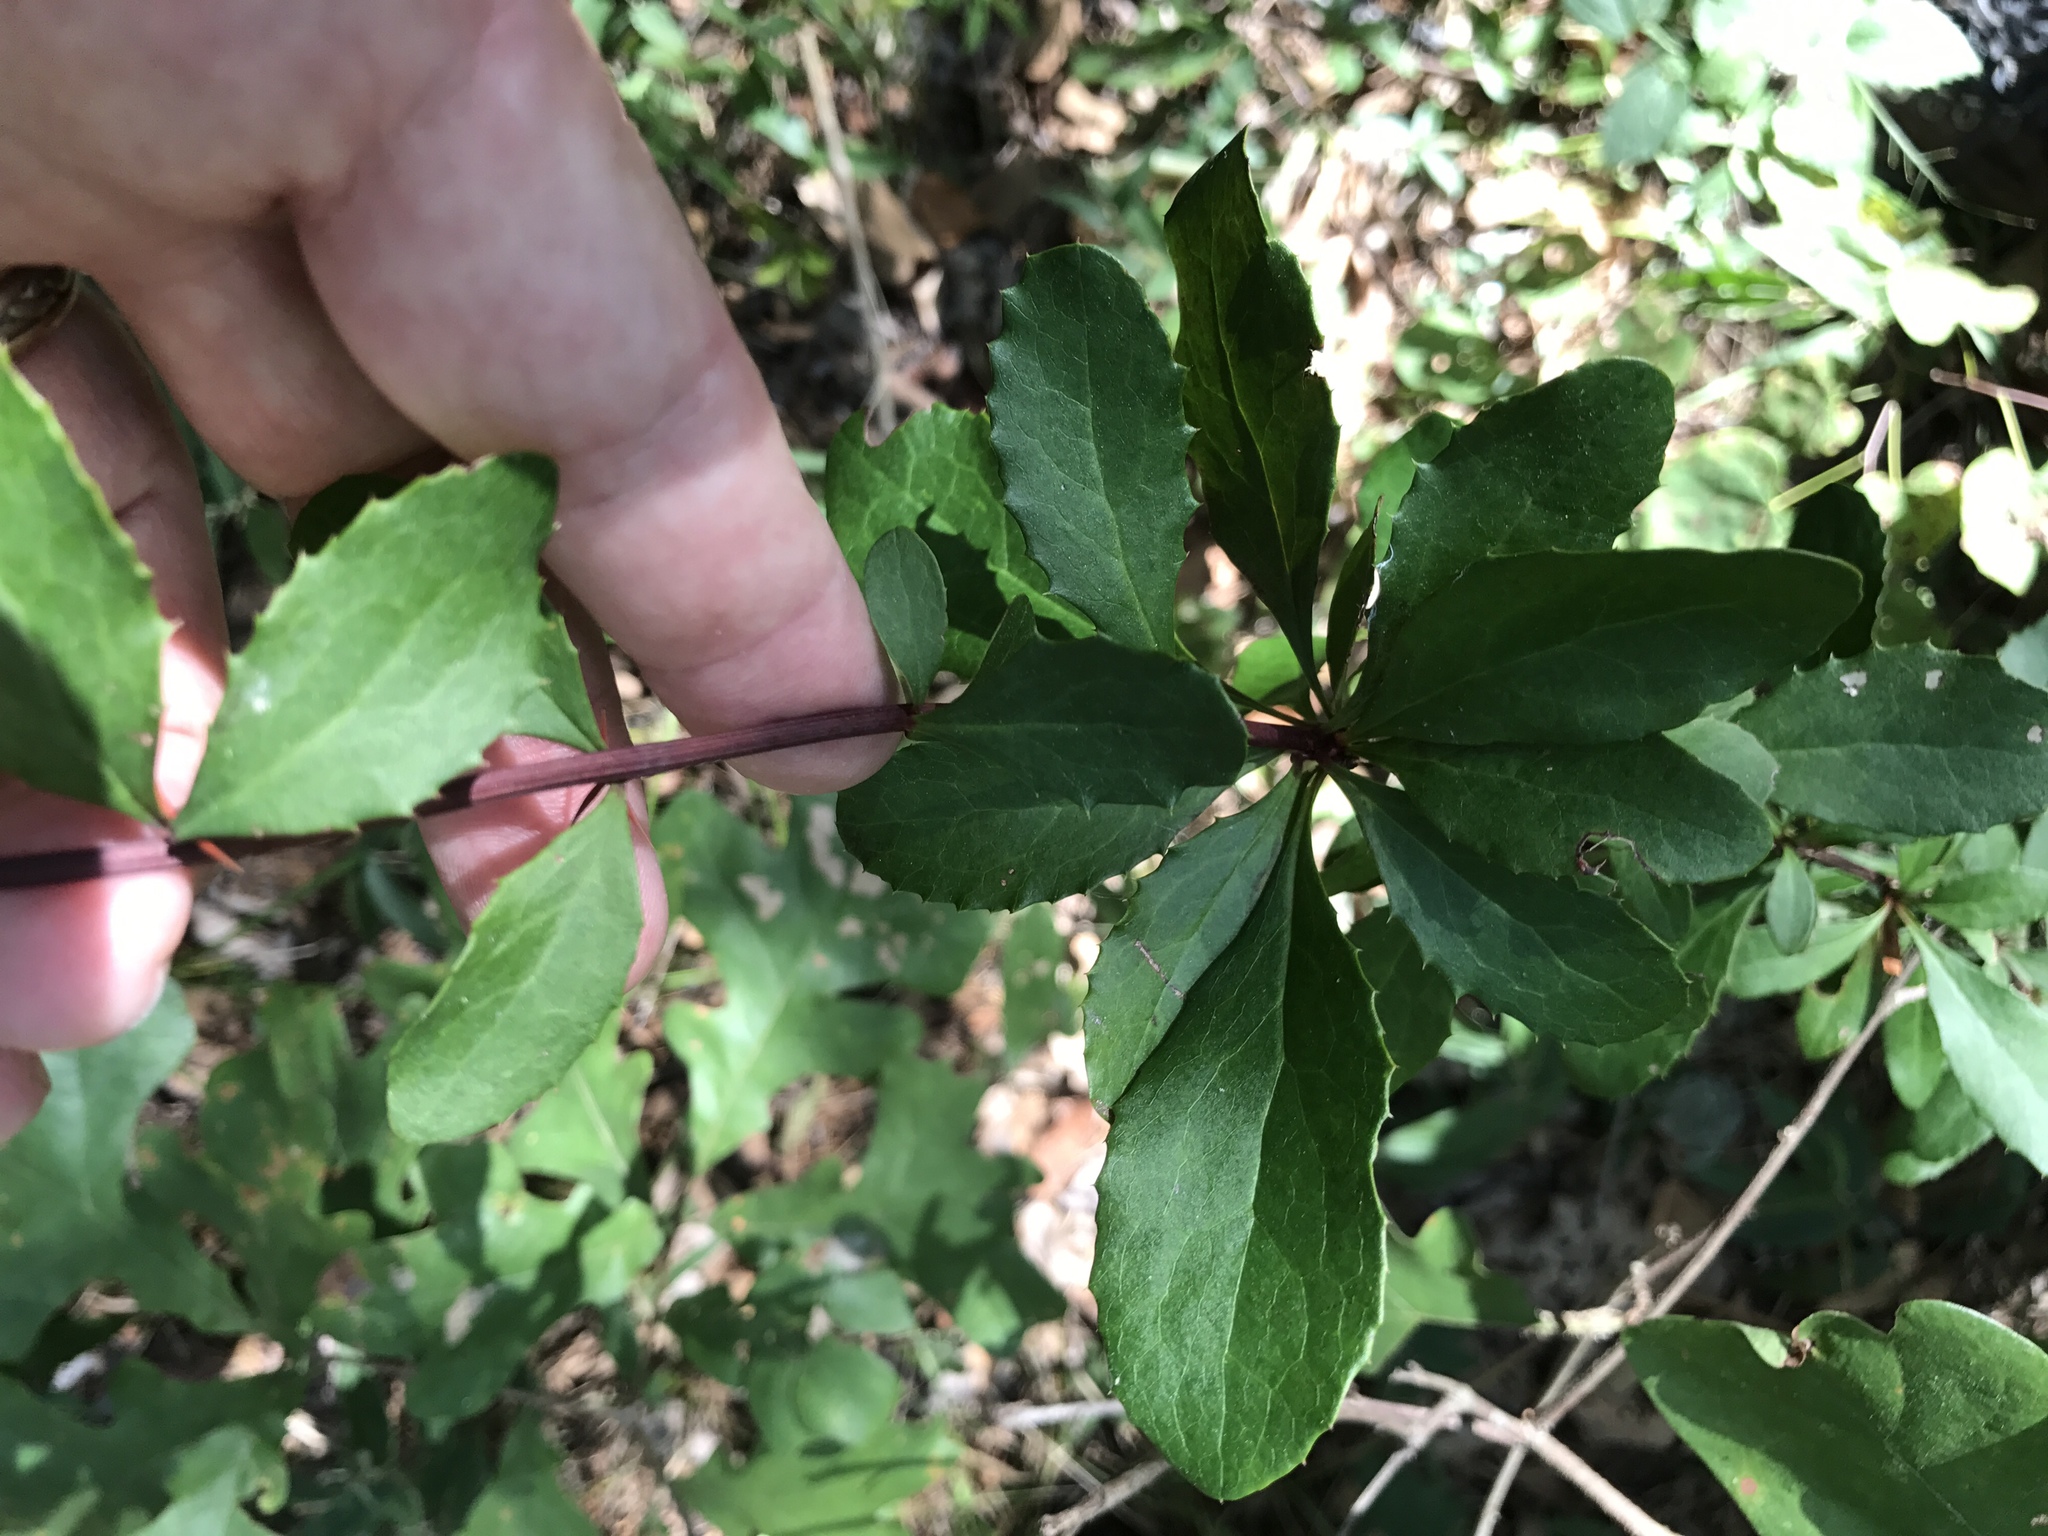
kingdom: Plantae
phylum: Tracheophyta
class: Magnoliopsida
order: Ranunculales
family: Berberidaceae
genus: Berberis
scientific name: Berberis canadensis
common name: American barberry
